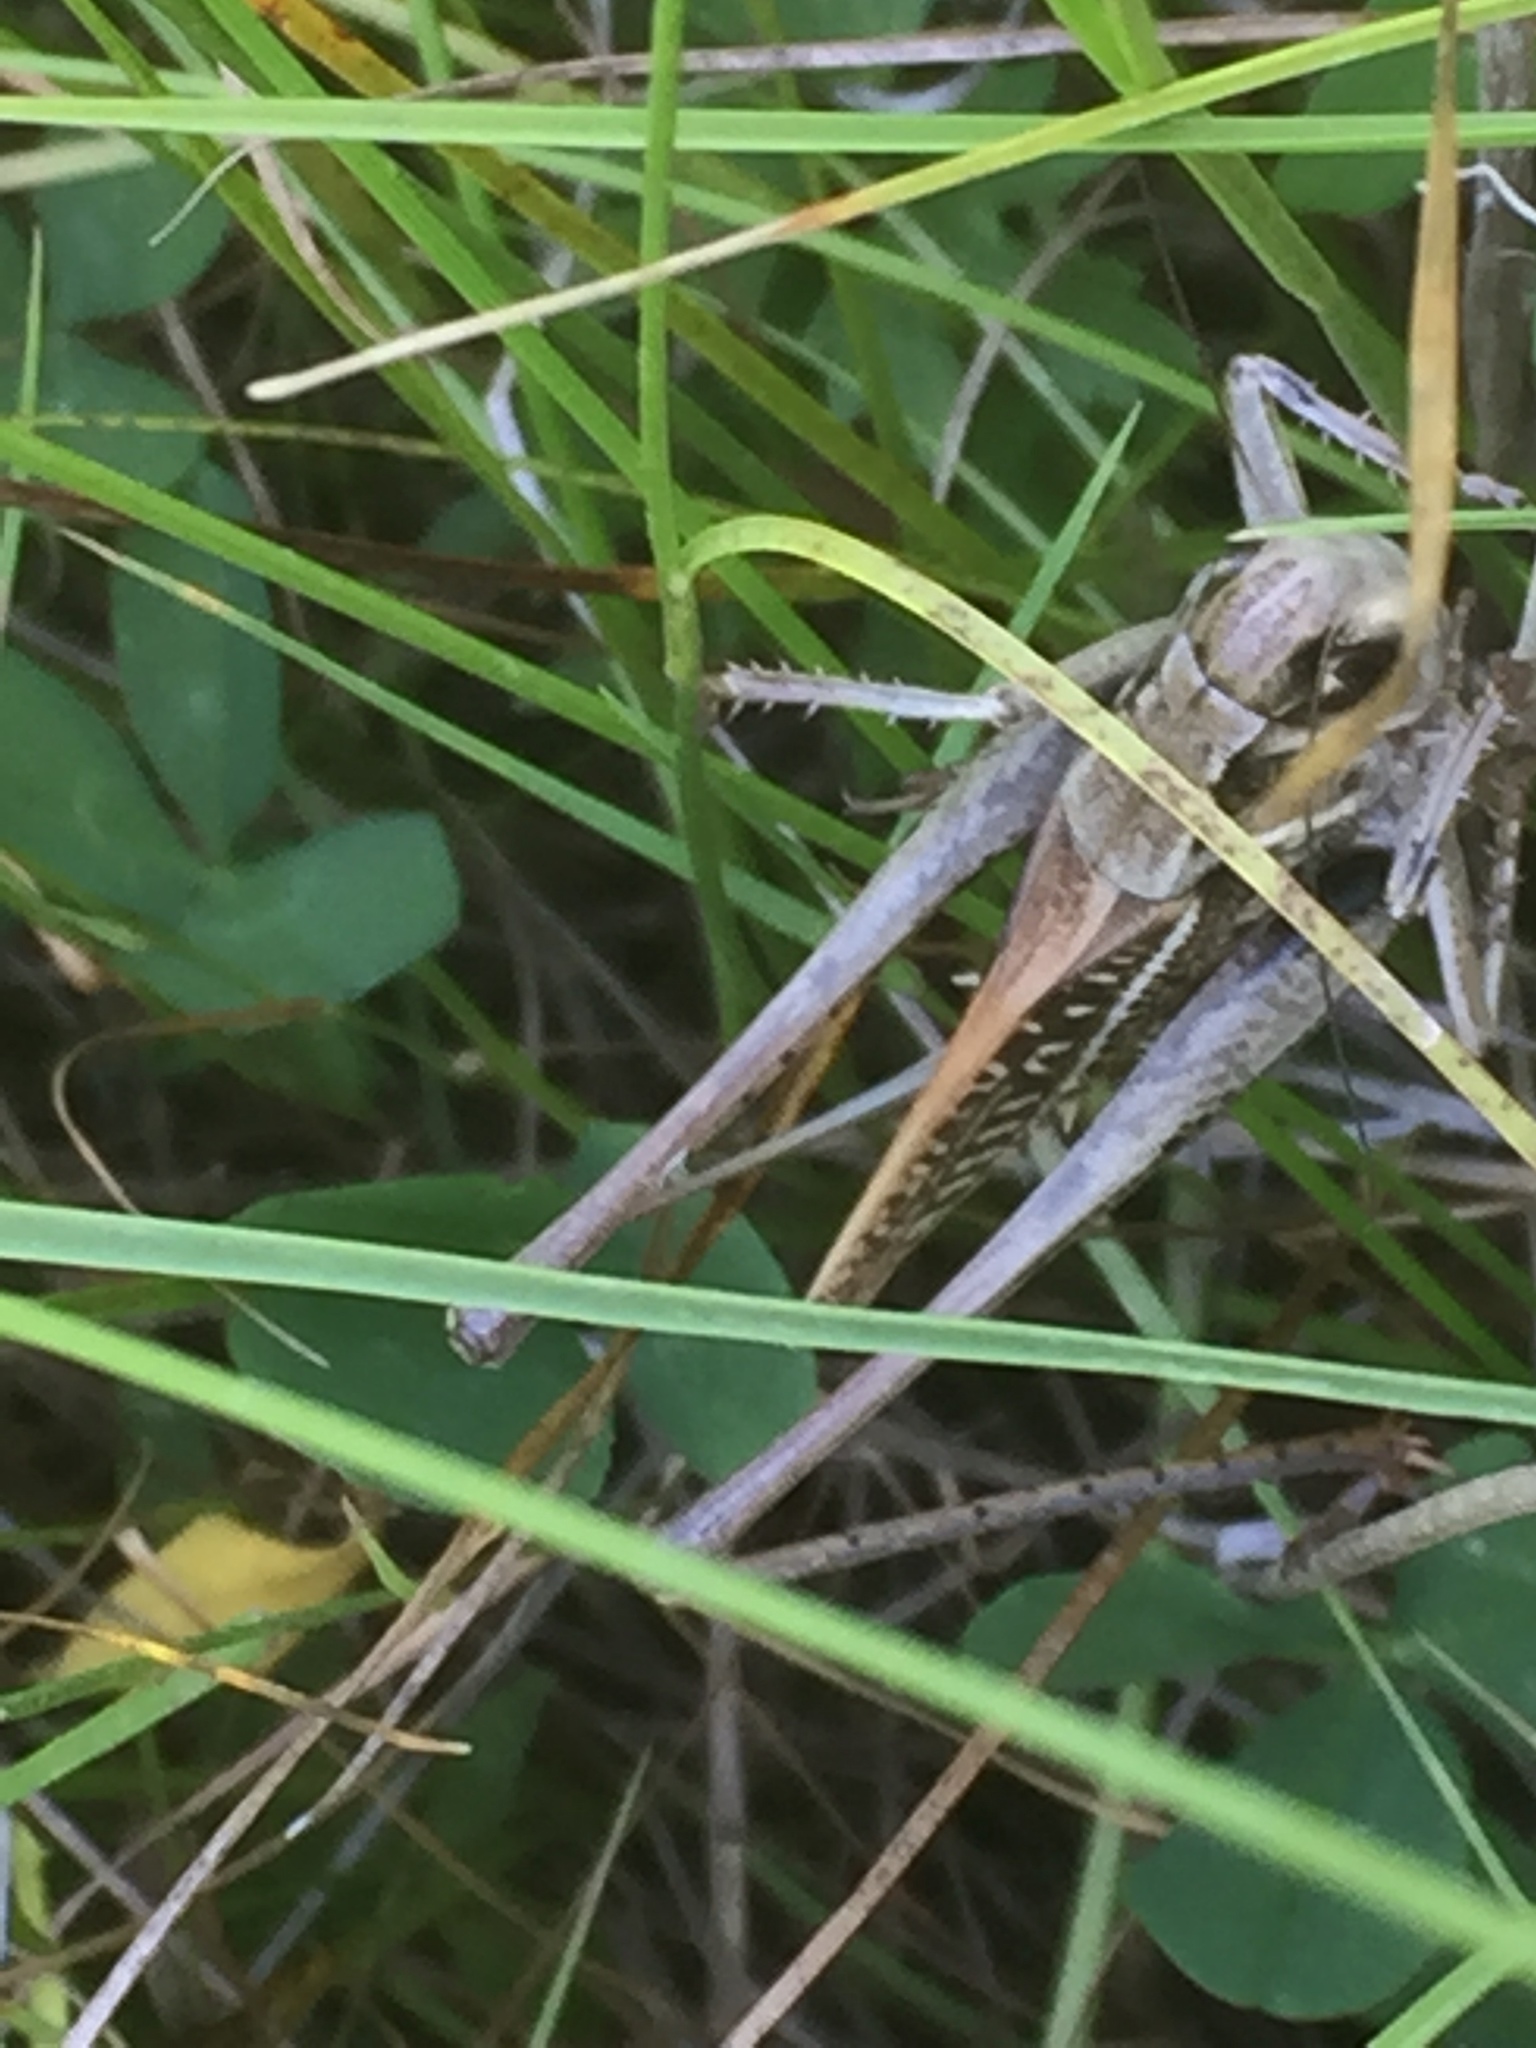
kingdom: Animalia
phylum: Arthropoda
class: Insecta
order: Orthoptera
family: Tettigoniidae
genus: Decticus
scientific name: Decticus verrucivorus
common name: Wart-biter
